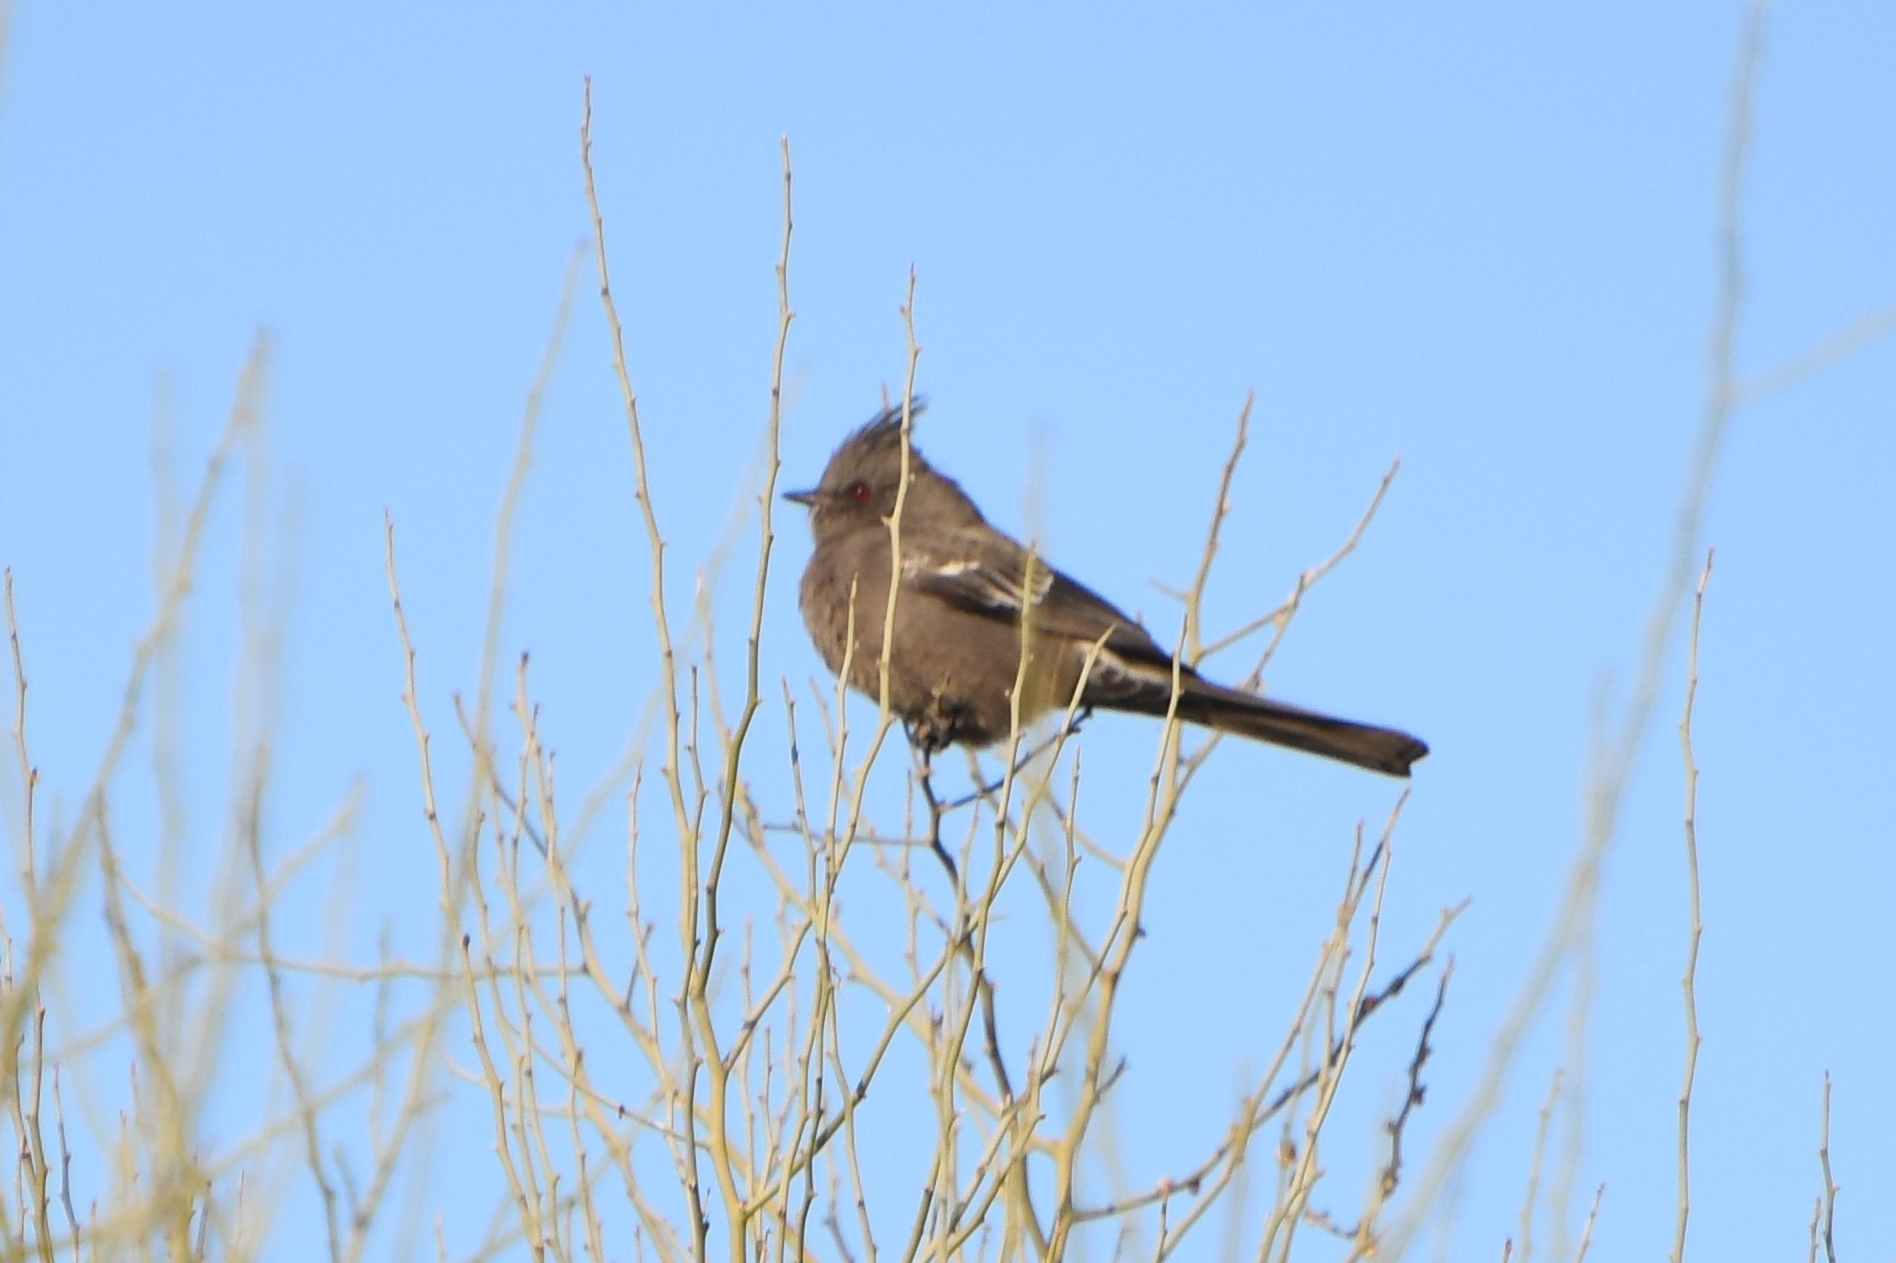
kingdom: Animalia
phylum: Chordata
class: Aves
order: Passeriformes
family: Ptilogonatidae
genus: Phainopepla
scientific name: Phainopepla nitens
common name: Phainopepla
